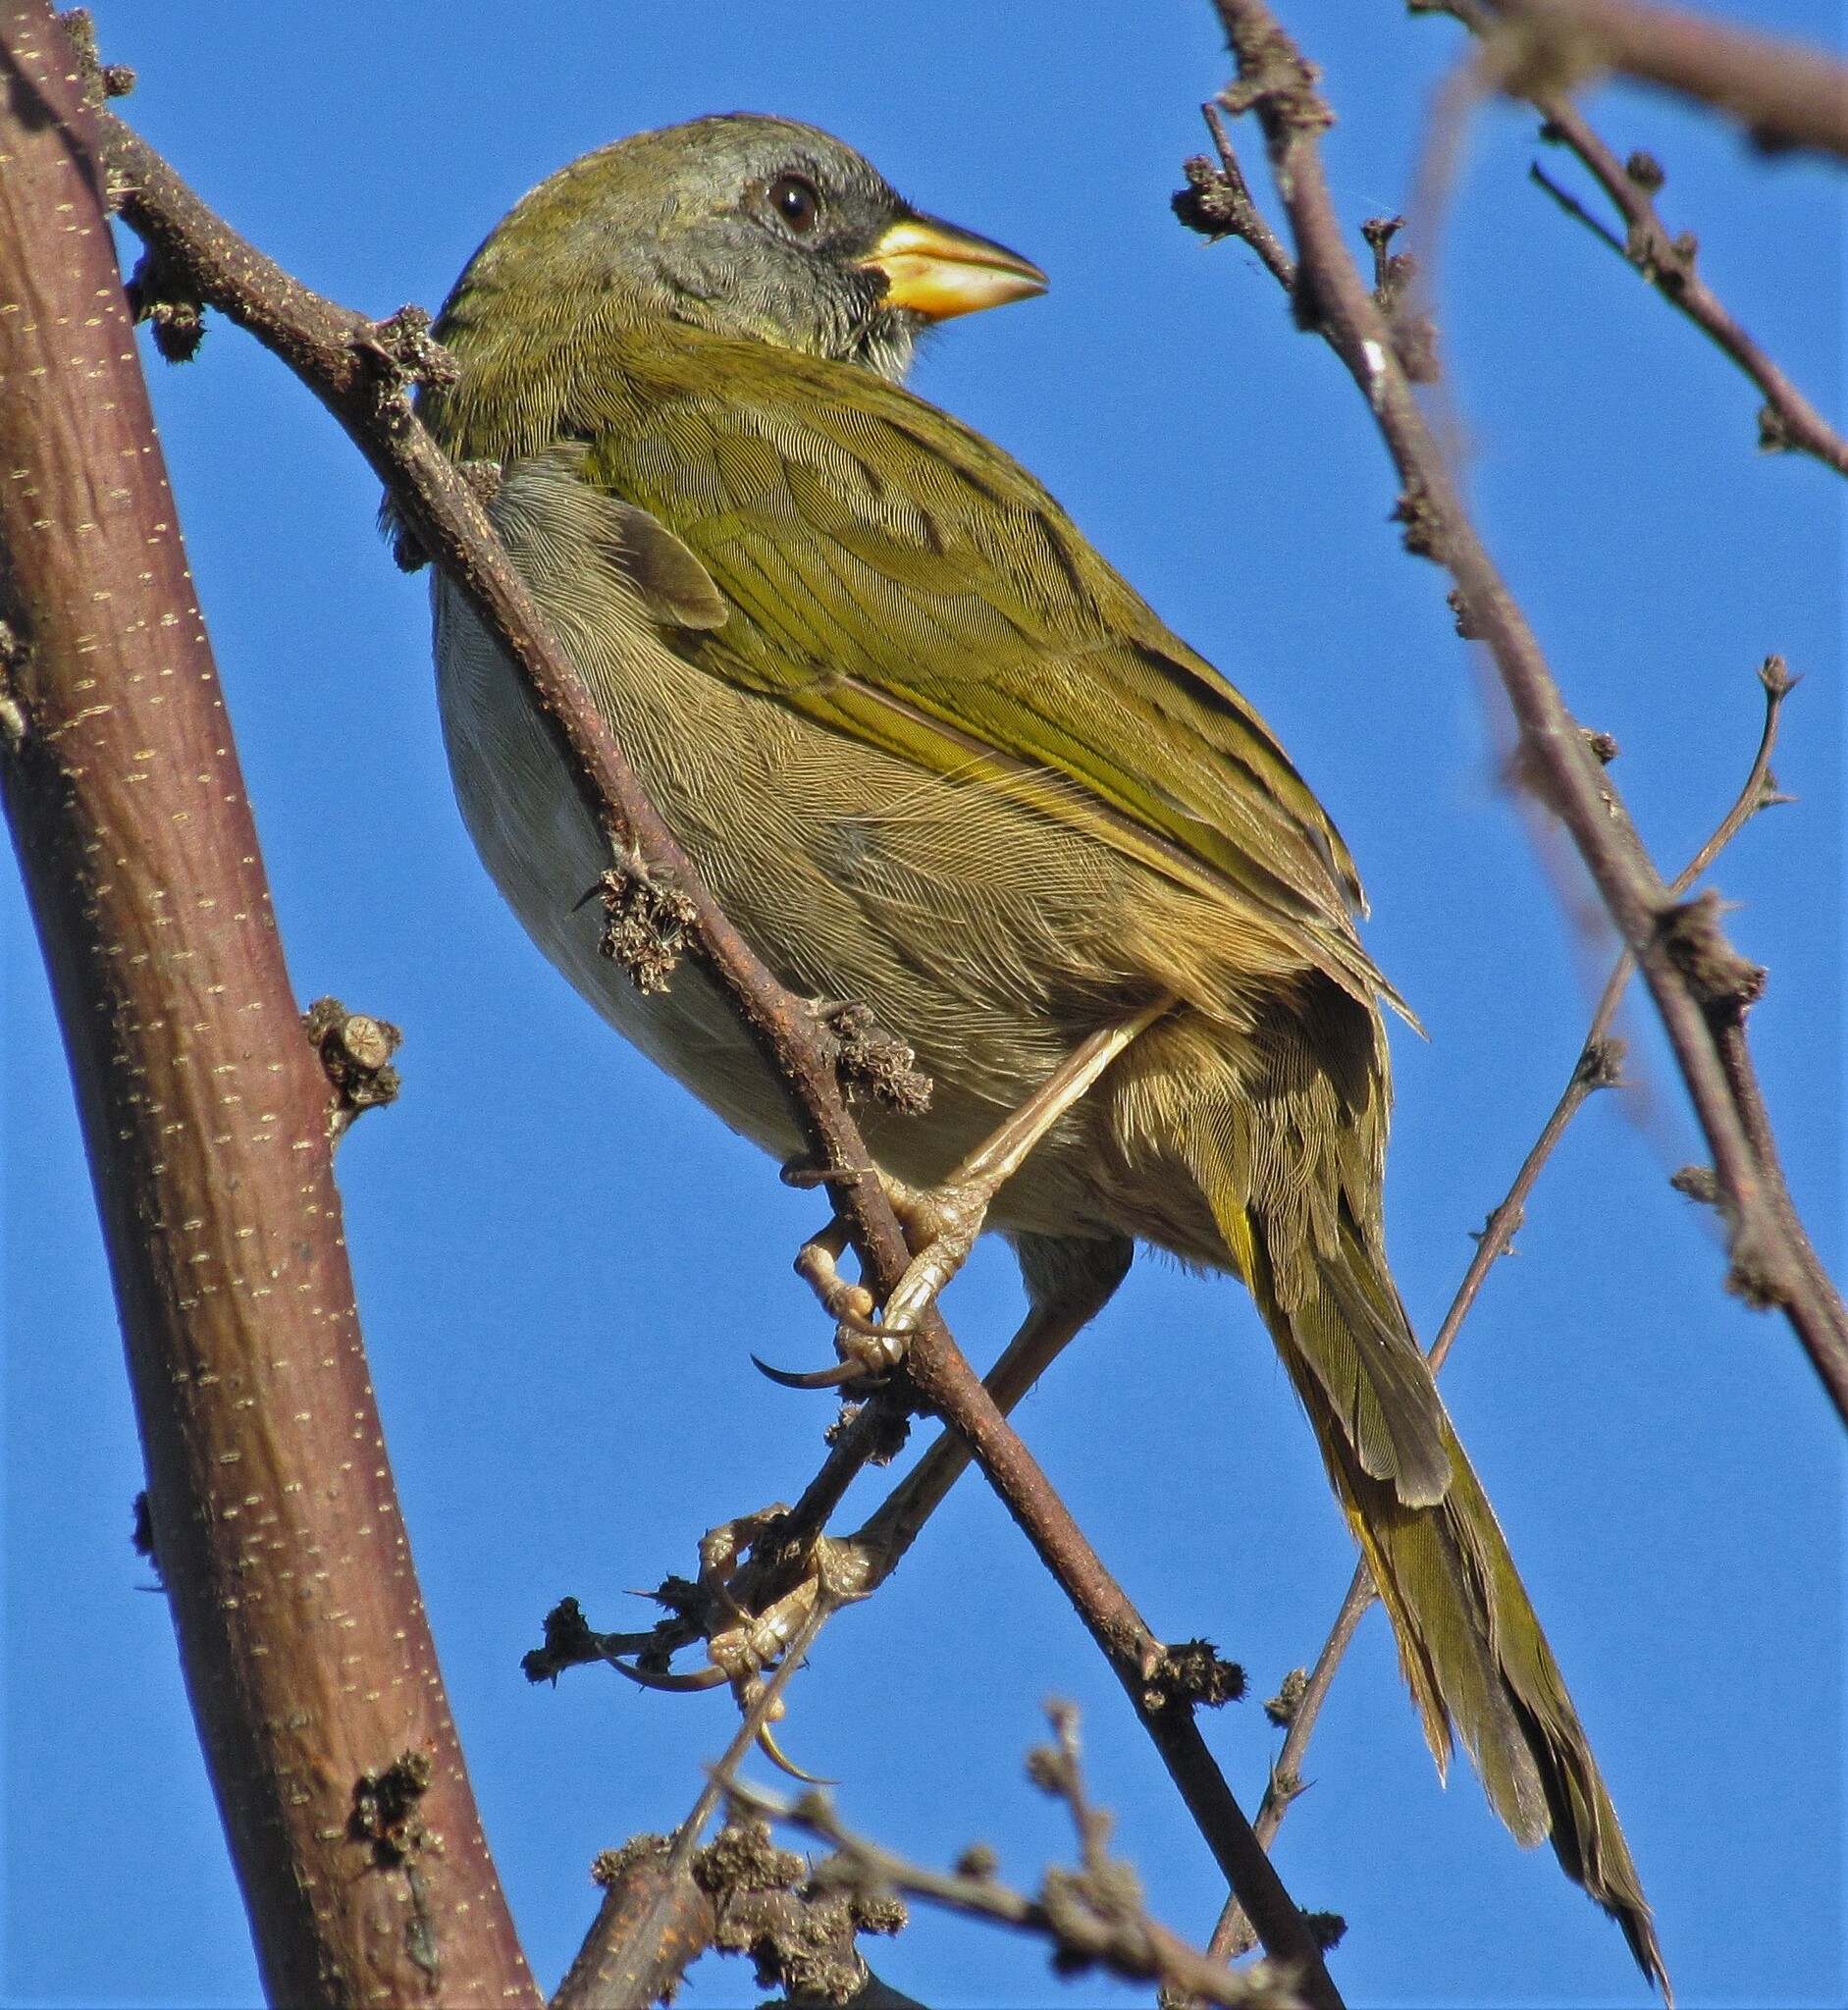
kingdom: Animalia
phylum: Chordata
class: Aves
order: Passeriformes
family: Thraupidae
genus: Embernagra
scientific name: Embernagra platensis
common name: Pampa finch
